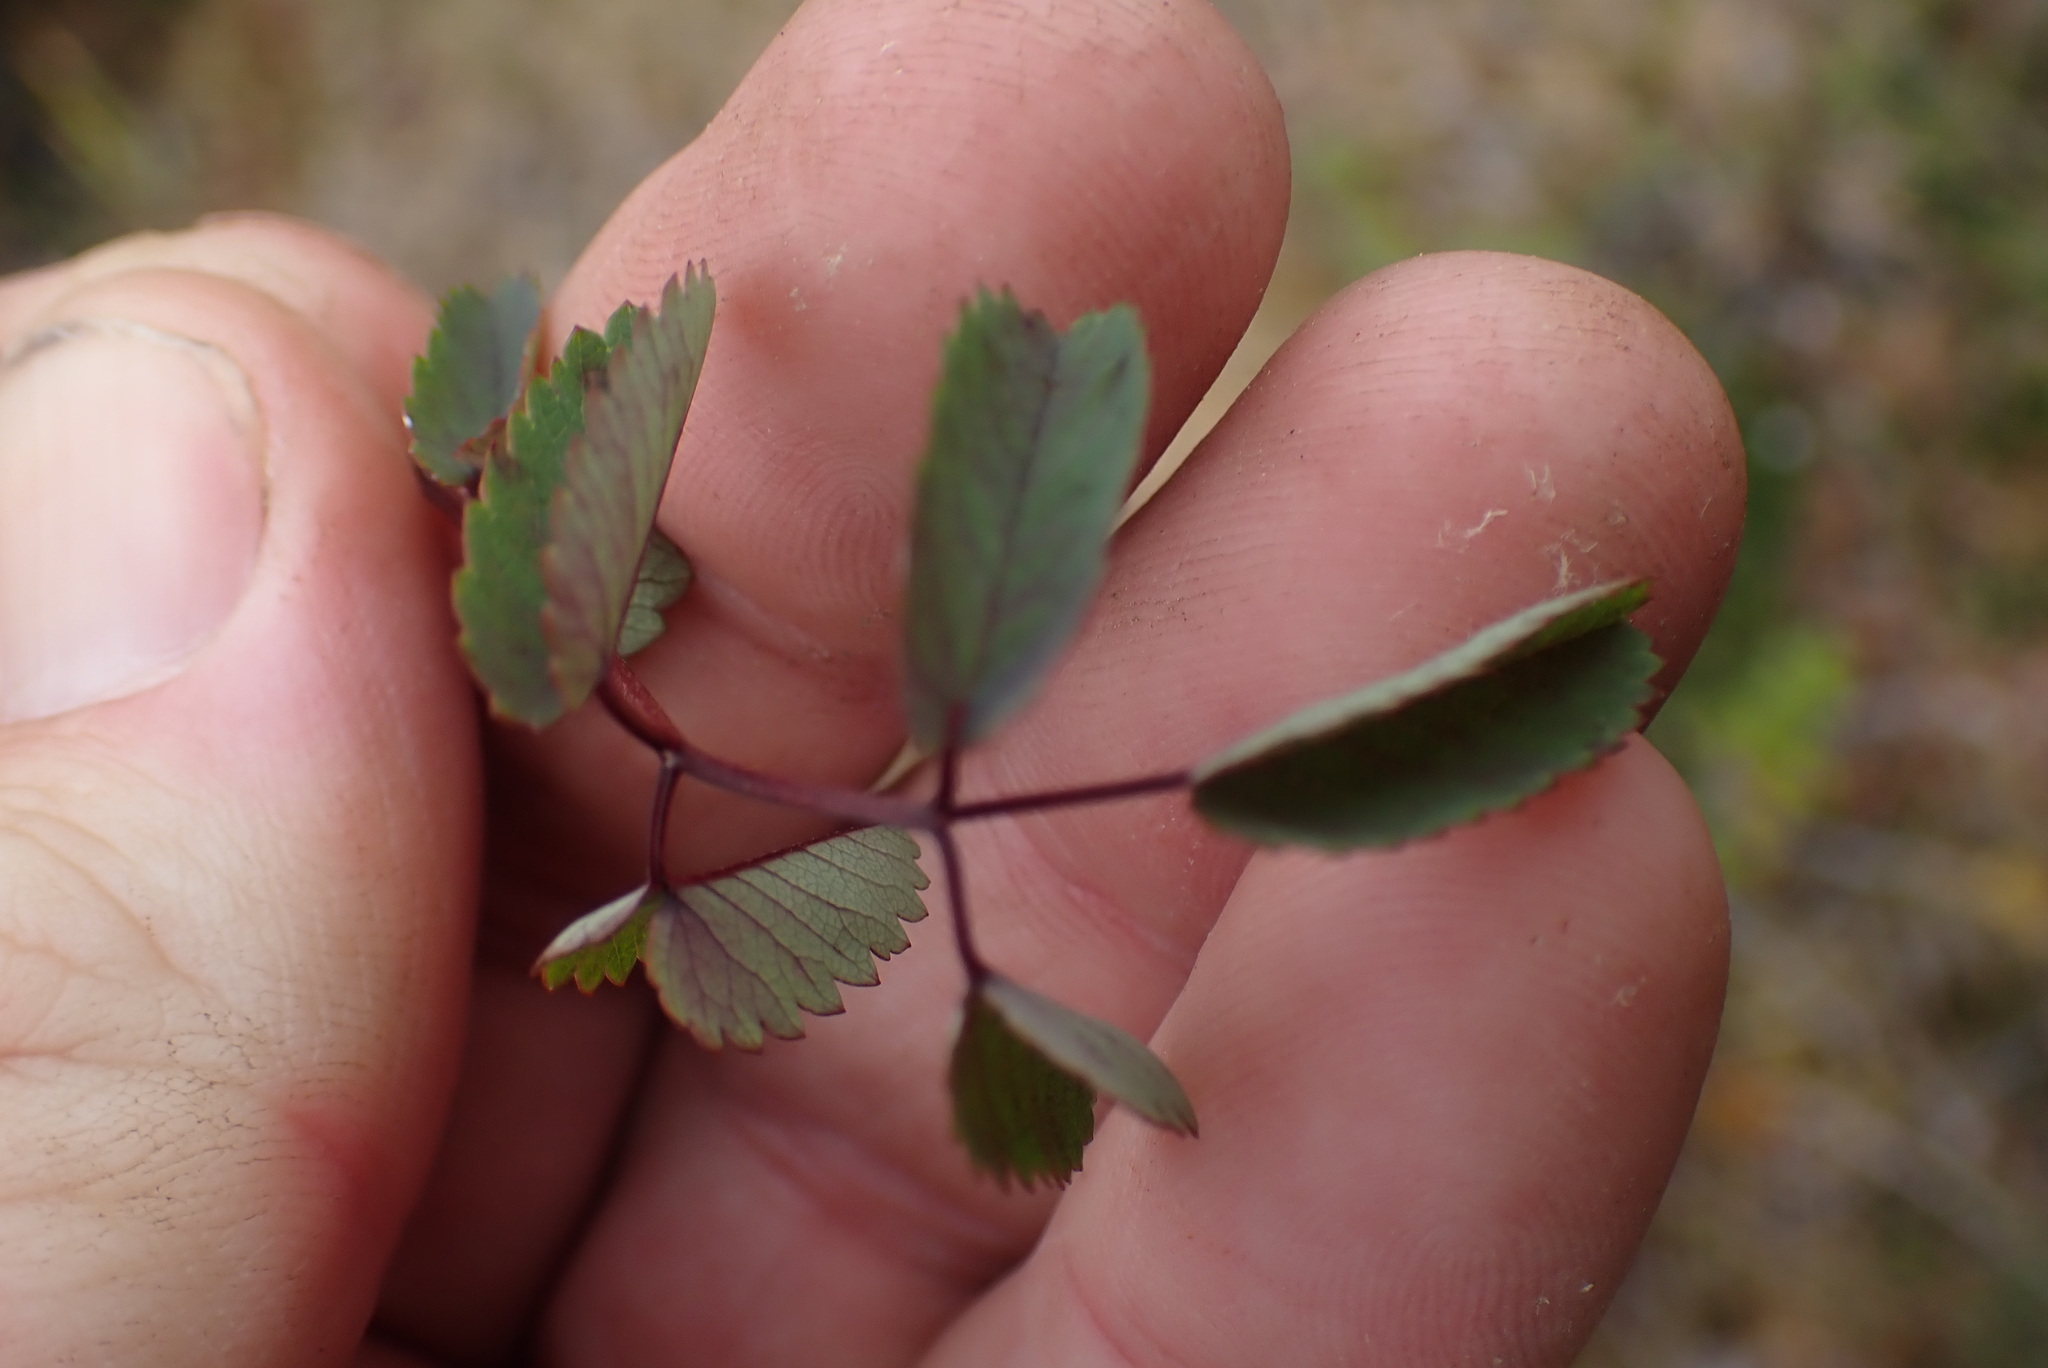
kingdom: Plantae
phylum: Tracheophyta
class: Magnoliopsida
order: Rosales
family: Rosaceae
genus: Sanguisorba
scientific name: Sanguisorba officinalis
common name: Great burnet
